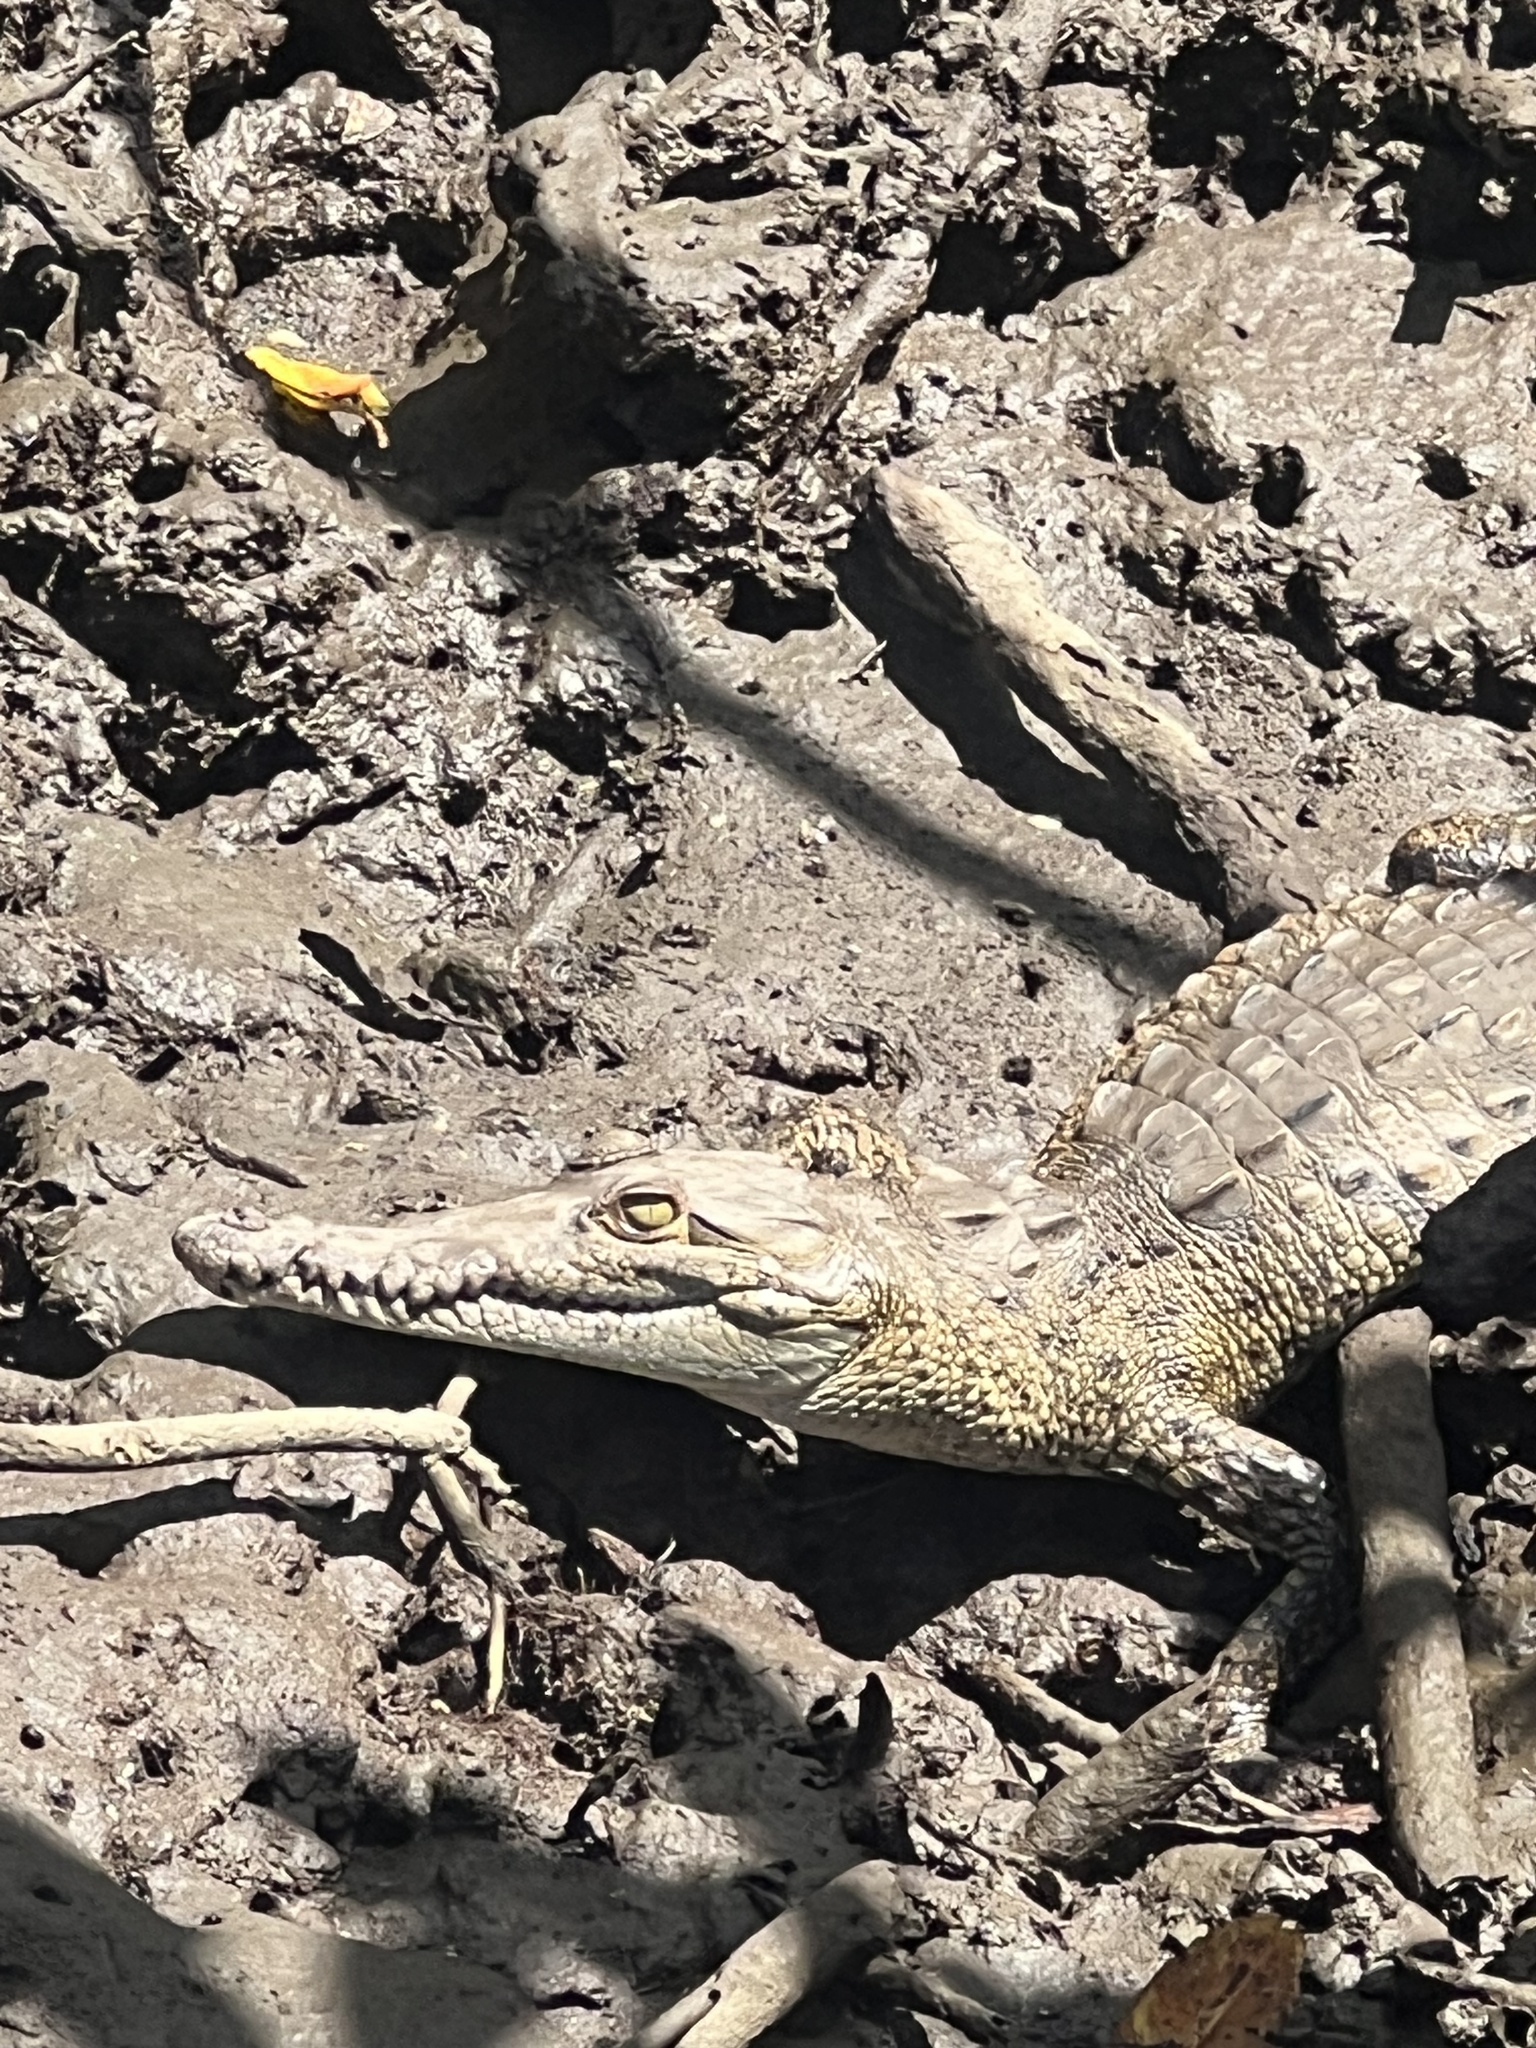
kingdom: Animalia
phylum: Chordata
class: Crocodylia
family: Crocodylidae
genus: Crocodylus
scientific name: Crocodylus acutus
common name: American crocodile
